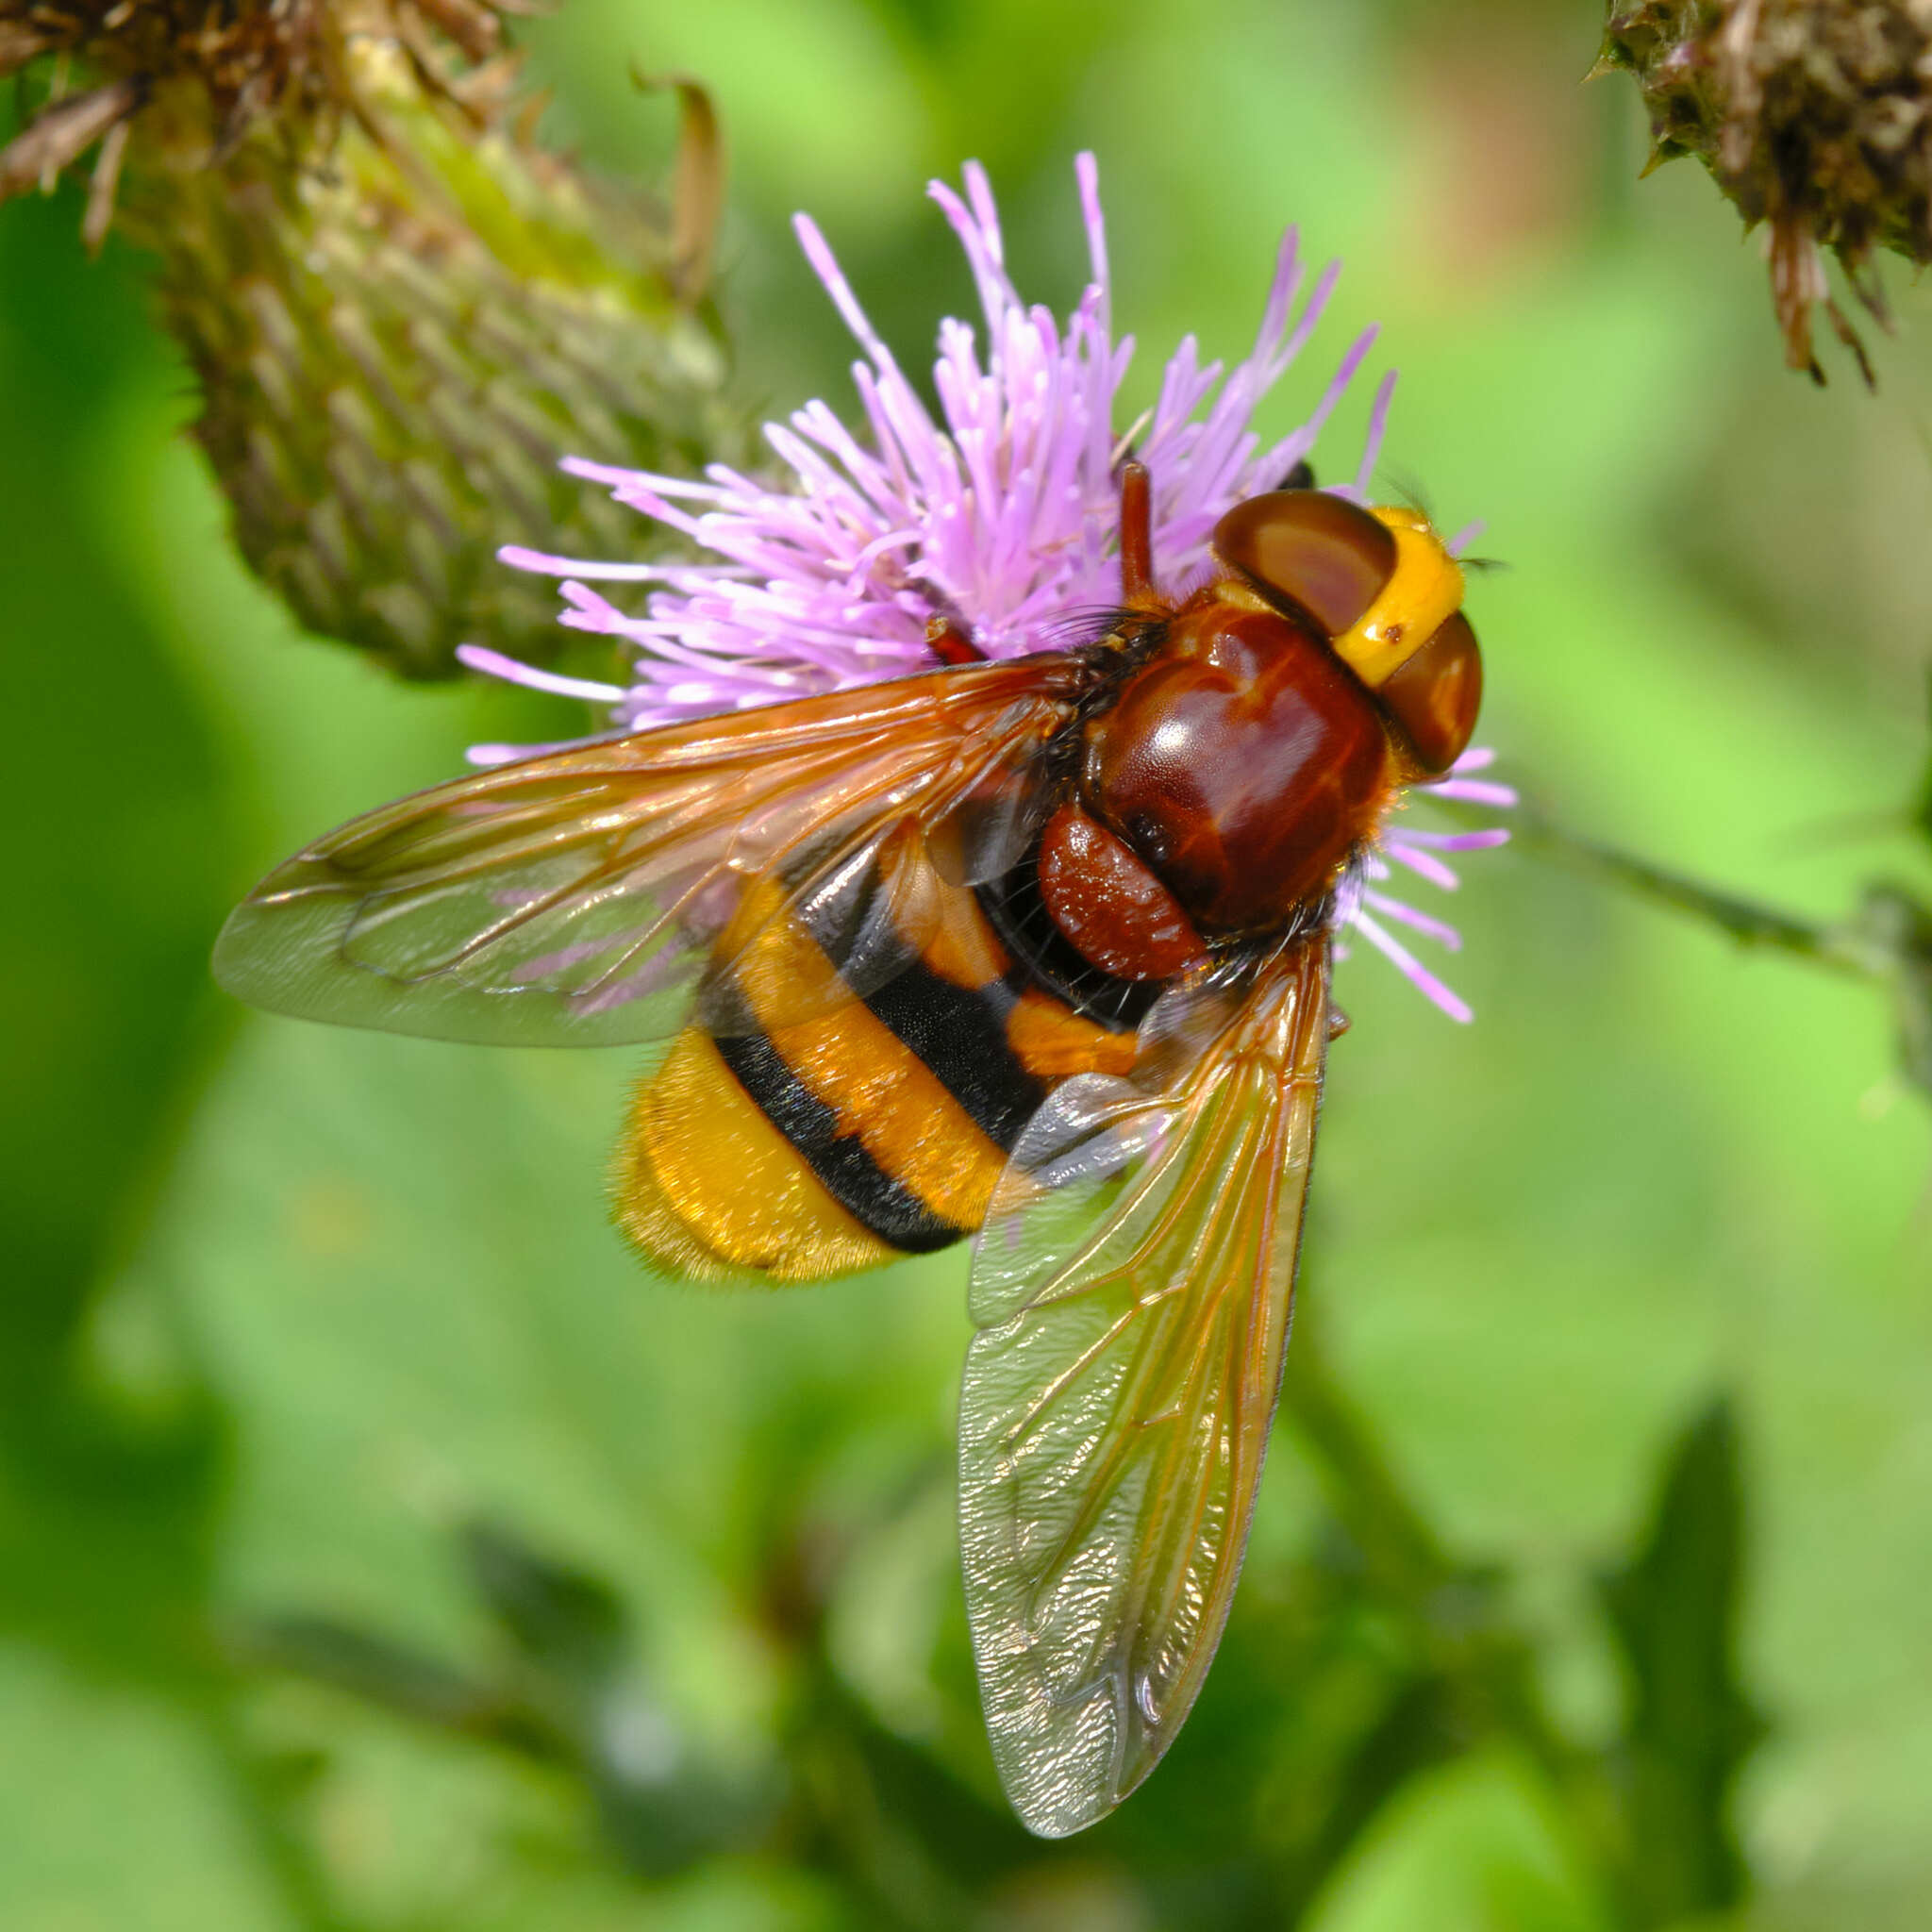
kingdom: Animalia
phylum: Arthropoda
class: Insecta
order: Diptera
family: Syrphidae
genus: Volucella
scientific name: Volucella zonaria
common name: Hornet hoverfly
